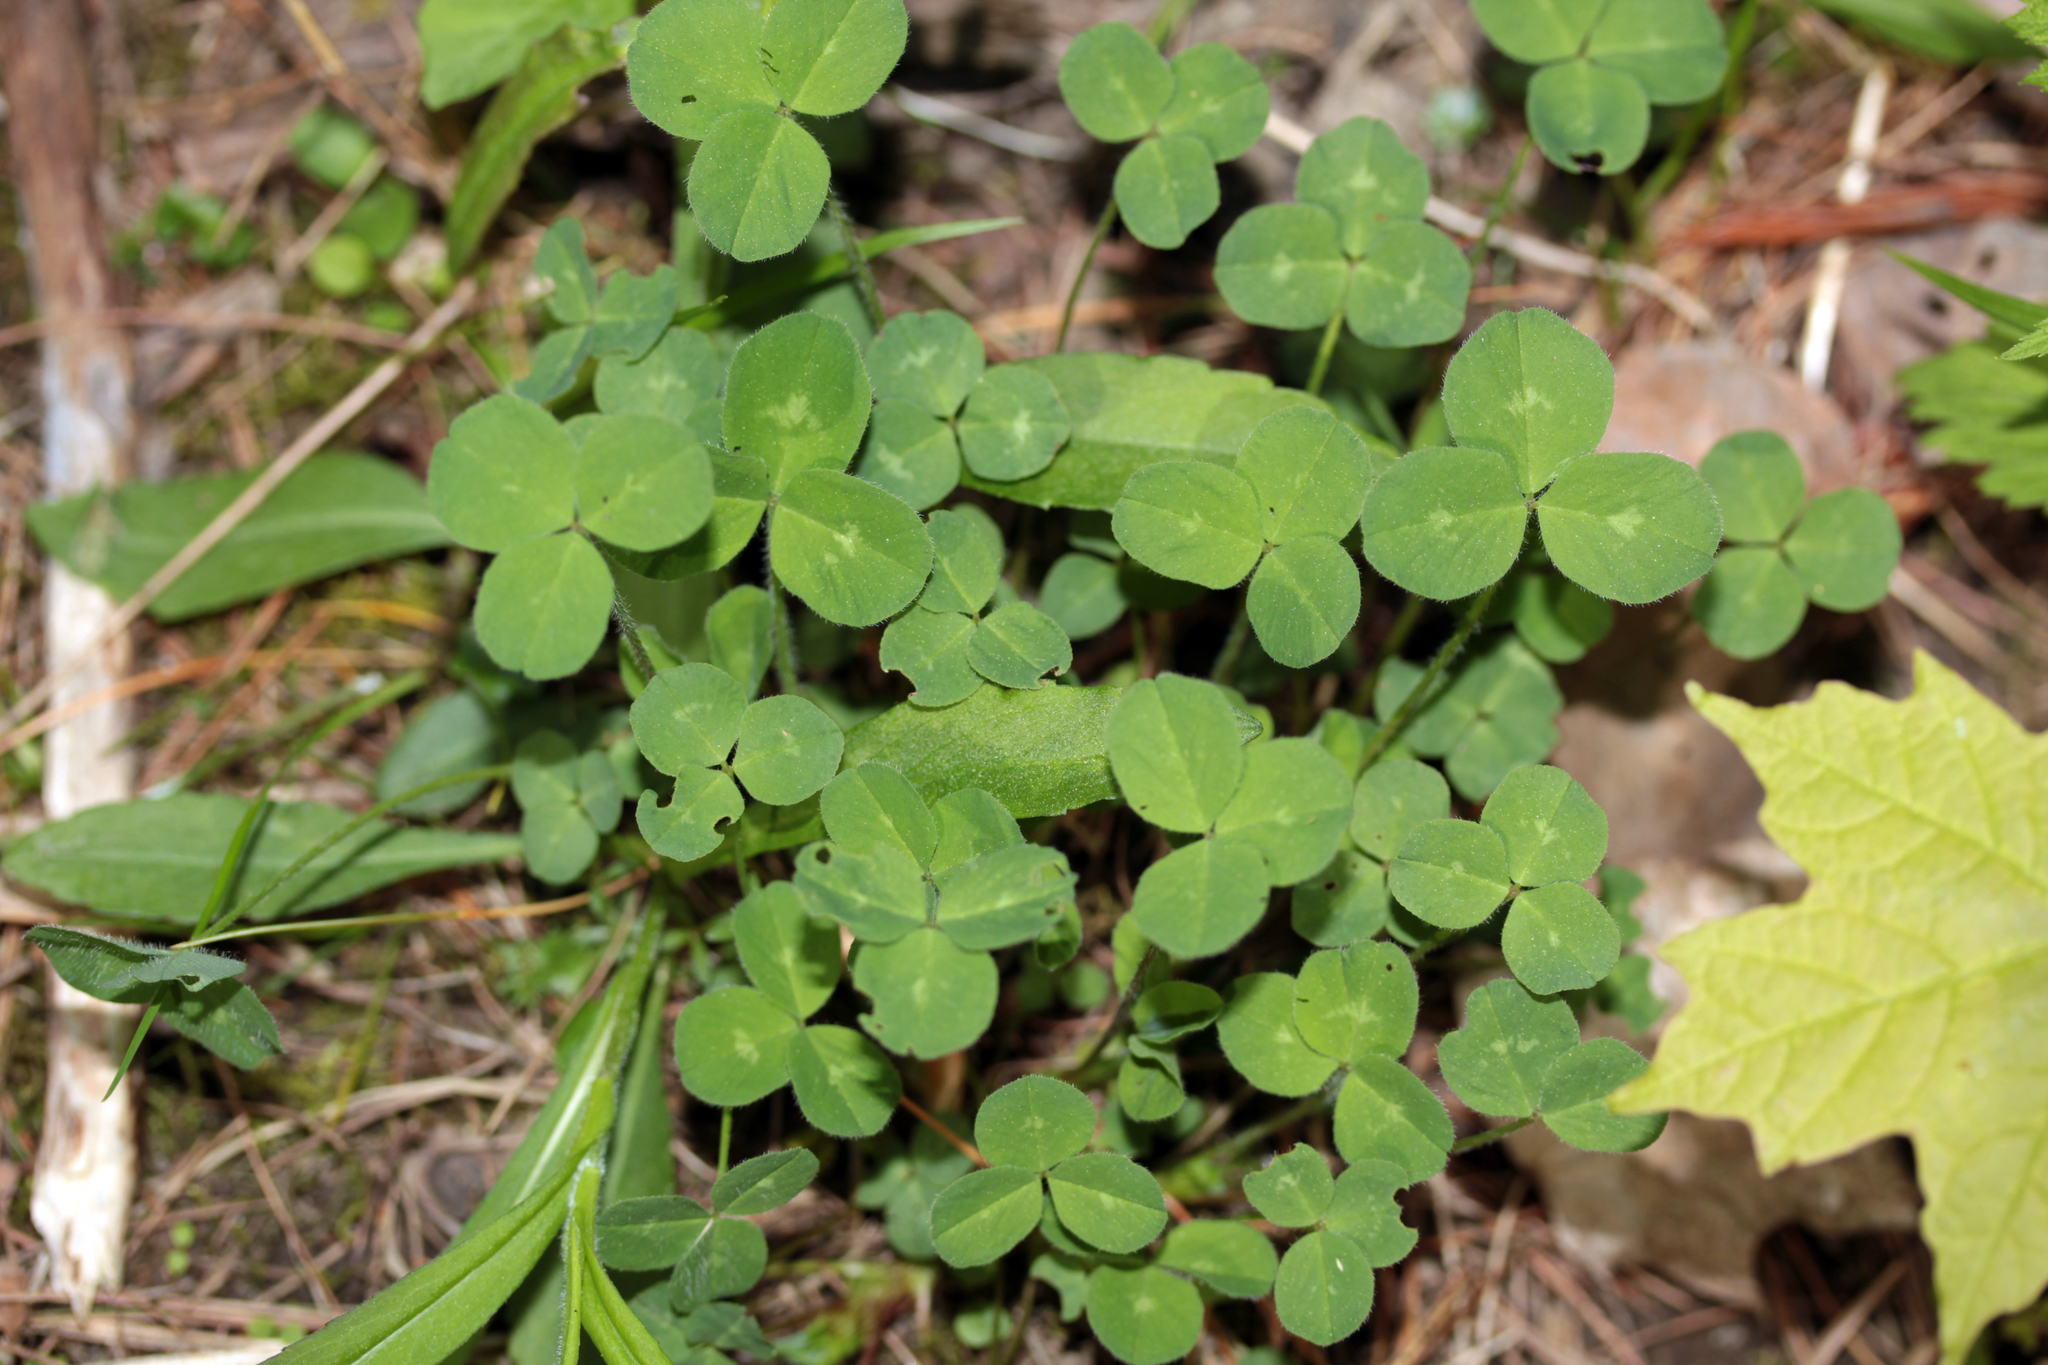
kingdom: Plantae
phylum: Tracheophyta
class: Magnoliopsida
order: Fabales
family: Fabaceae
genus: Trifolium
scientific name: Trifolium pratense
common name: Red clover
